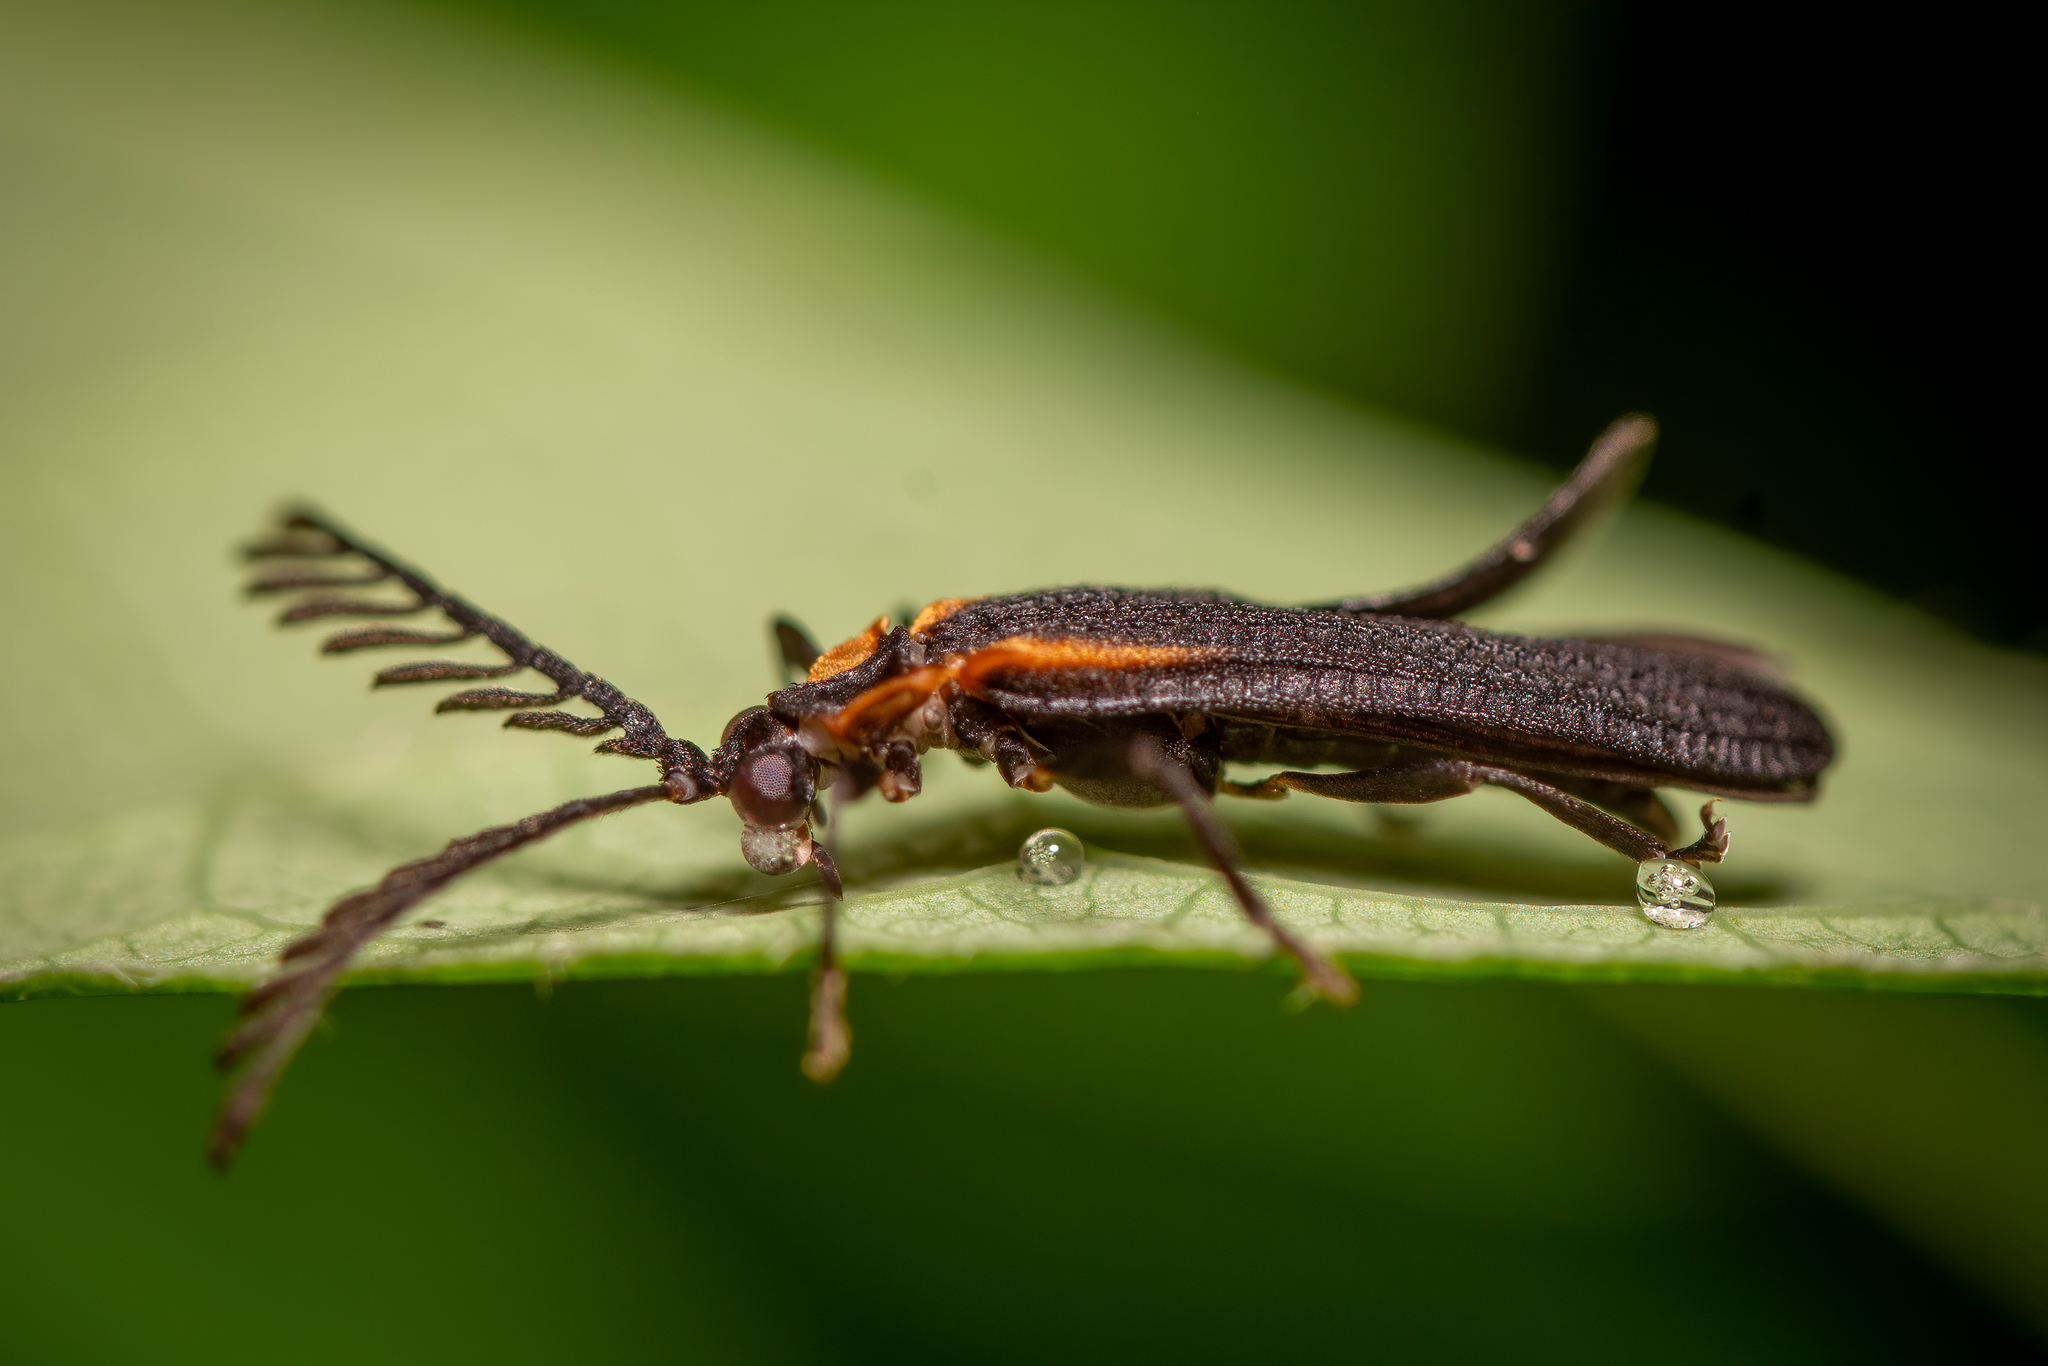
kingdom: Animalia
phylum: Arthropoda
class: Insecta
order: Coleoptera
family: Lycidae
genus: Leptoceletes
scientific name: Leptoceletes basalis
